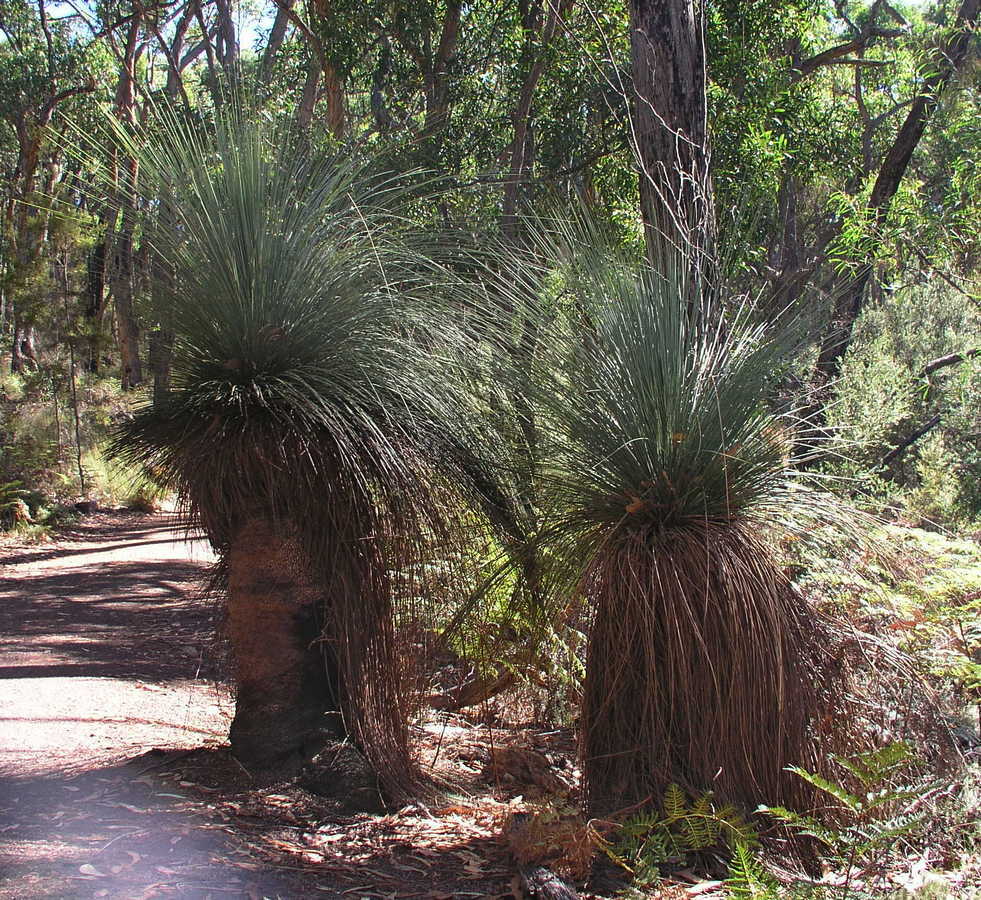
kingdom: Plantae
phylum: Tracheophyta
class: Liliopsida
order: Asparagales
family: Asphodelaceae
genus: Xanthorrhoea
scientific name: Xanthorrhoea australis
